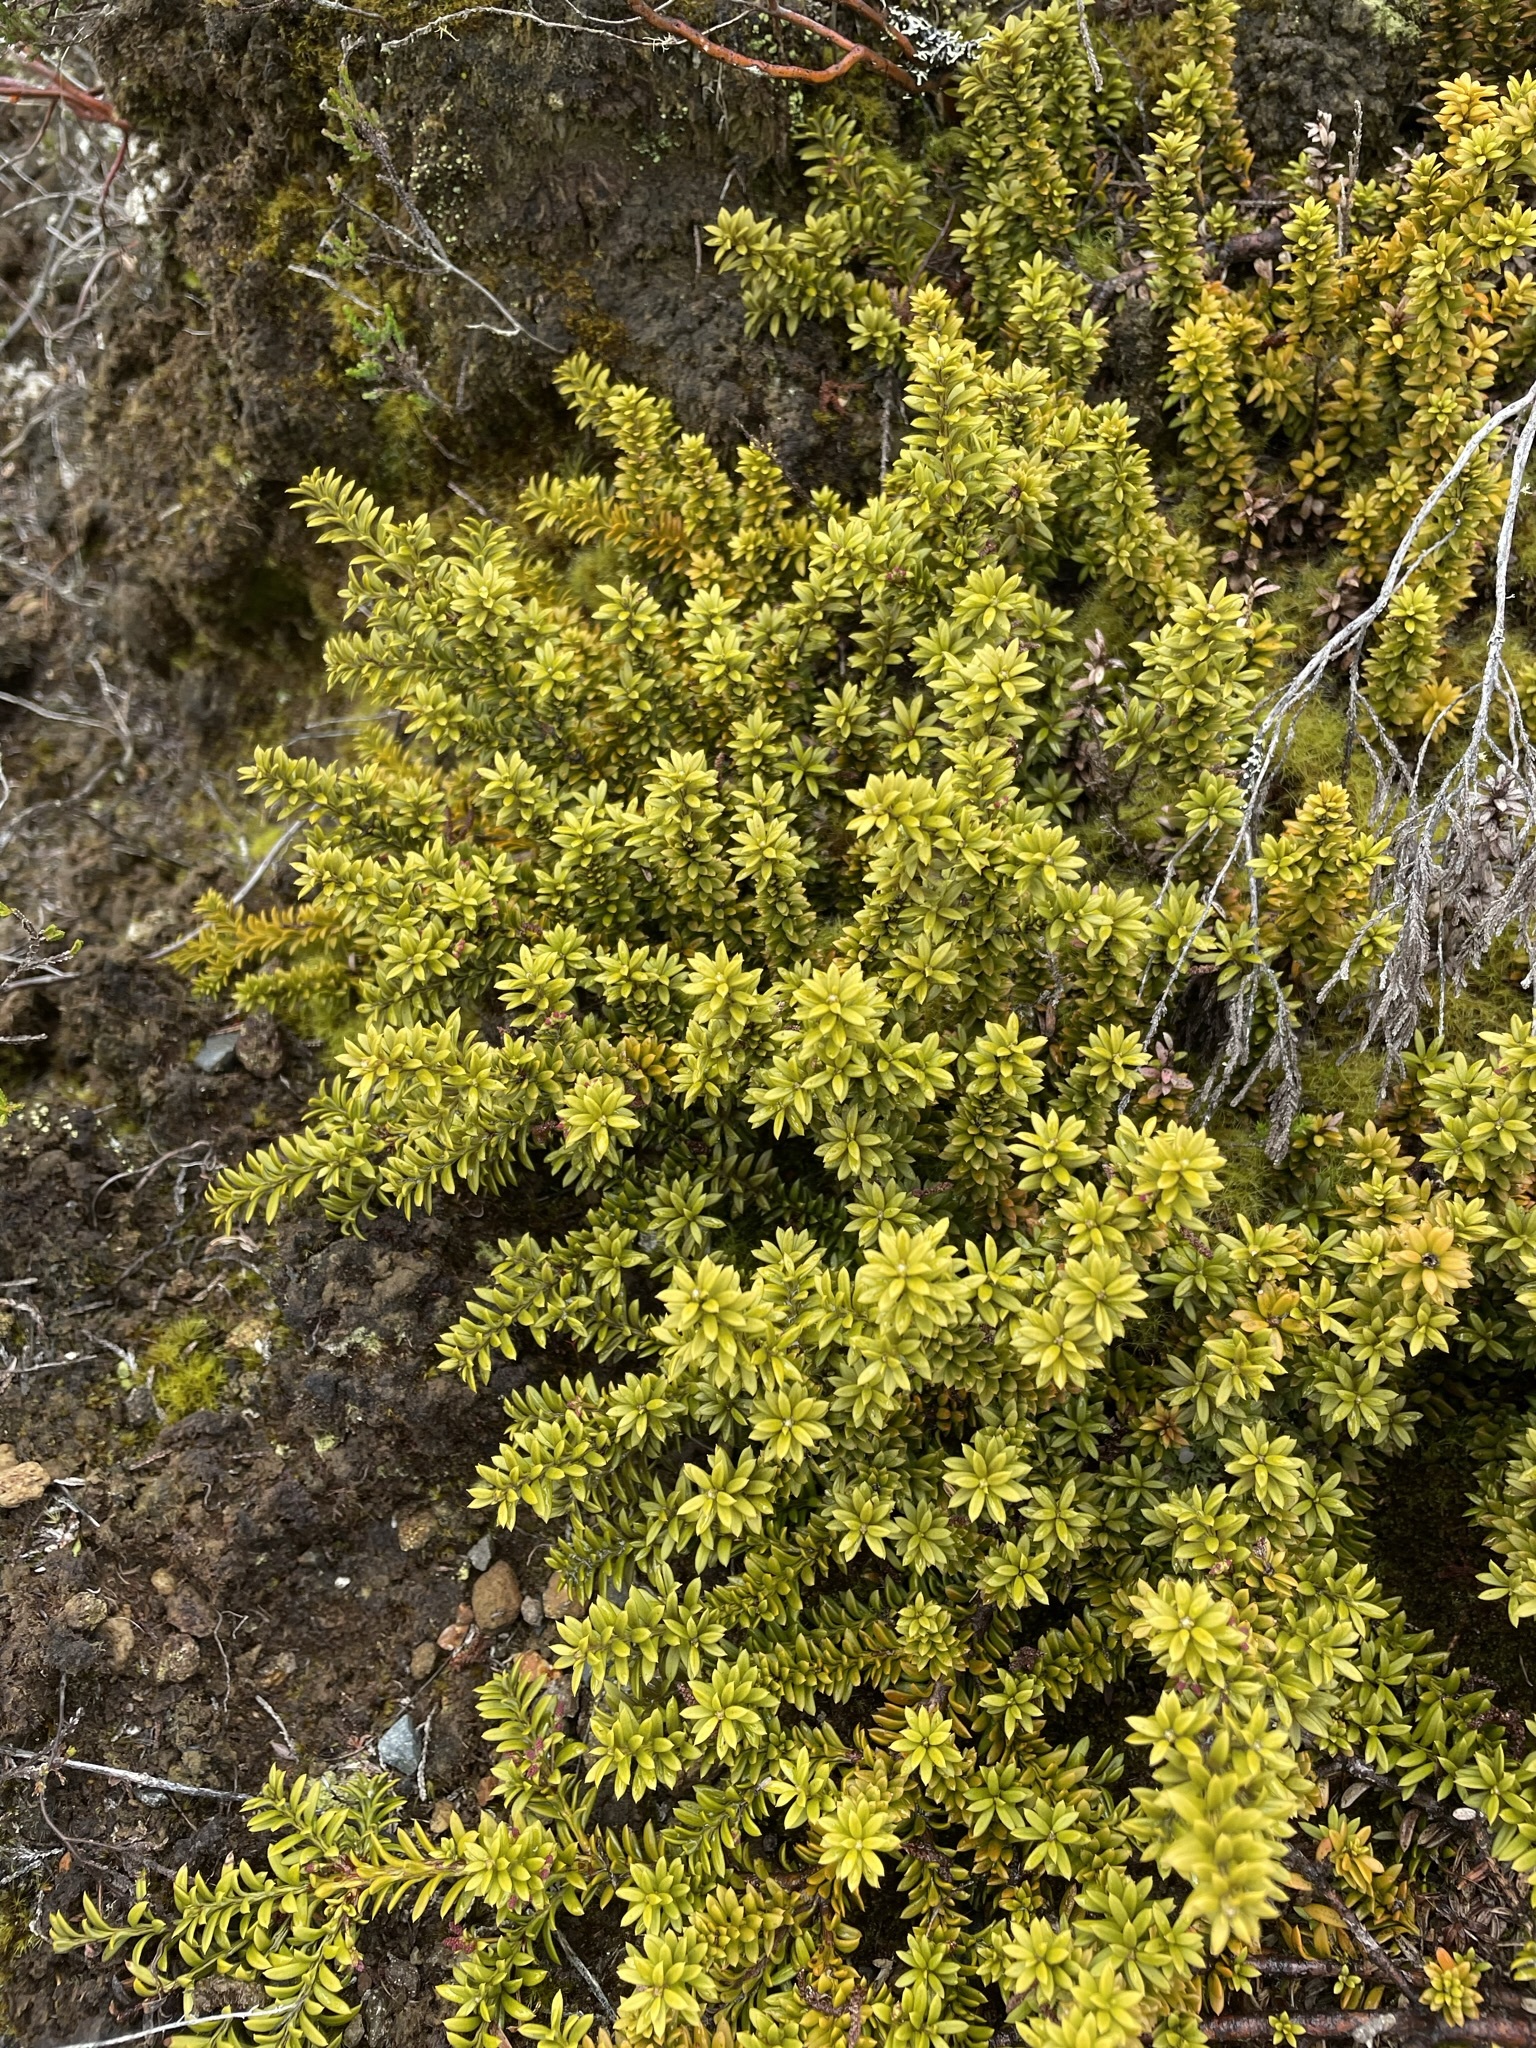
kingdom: Plantae
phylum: Tracheophyta
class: Pinopsida
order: Pinales
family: Podocarpaceae
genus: Podocarpus
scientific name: Podocarpus nivalis
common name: Alpine totara
